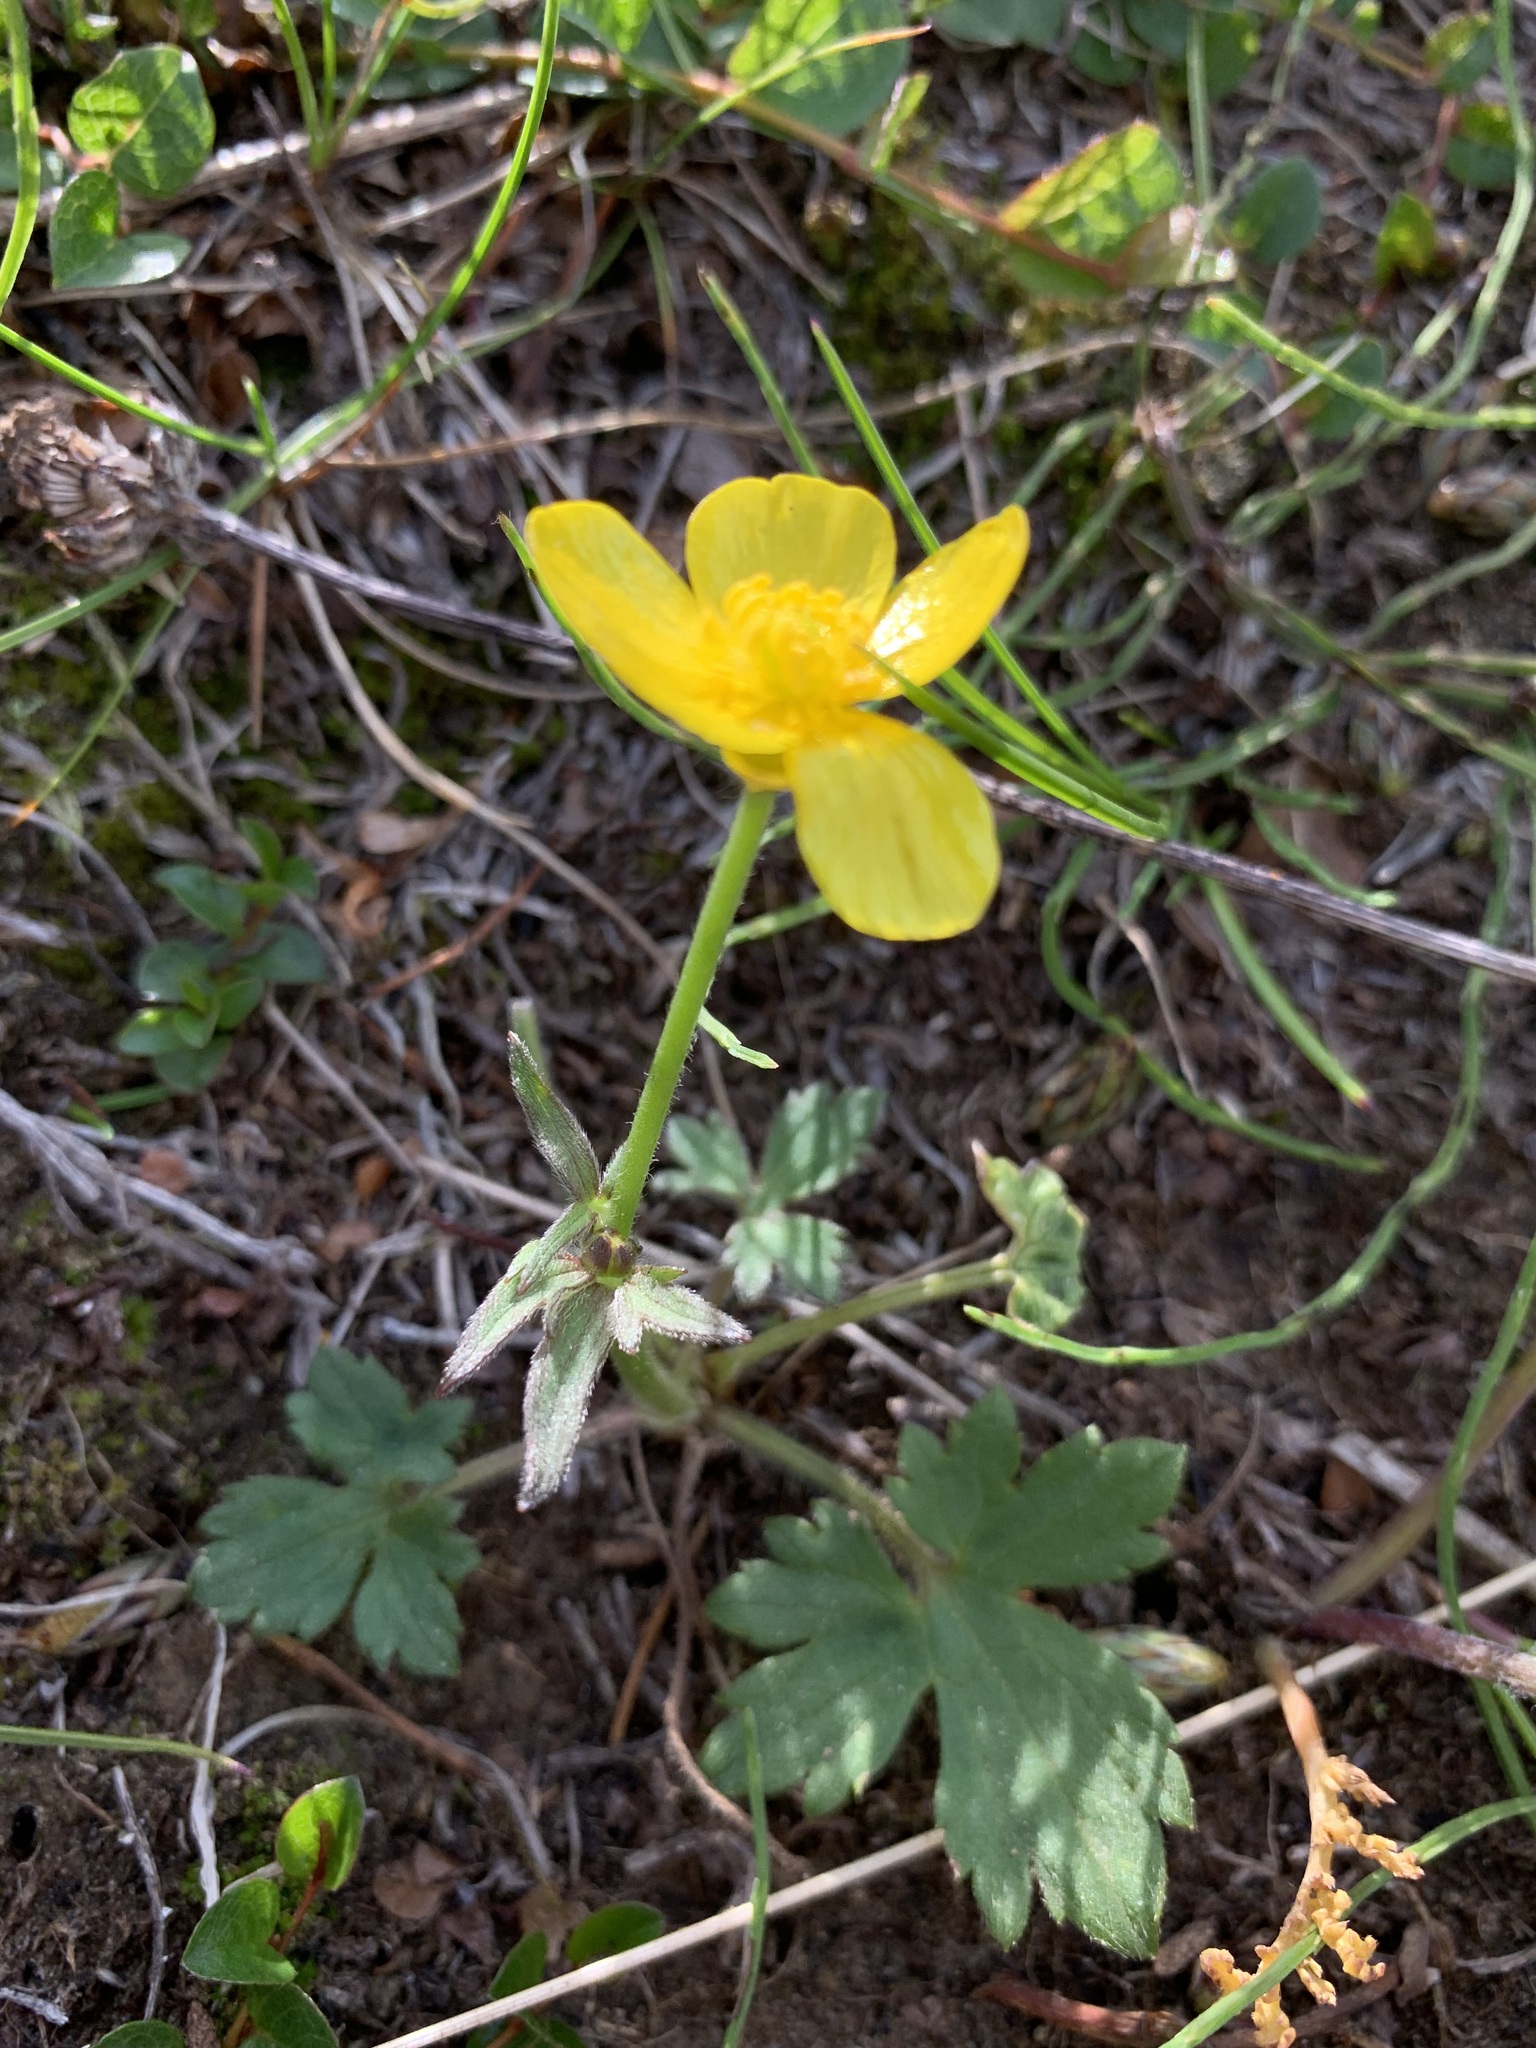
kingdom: Plantae
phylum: Tracheophyta
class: Magnoliopsida
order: Ranunculales
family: Ranunculaceae
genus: Ranunculus
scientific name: Ranunculus propinquus
